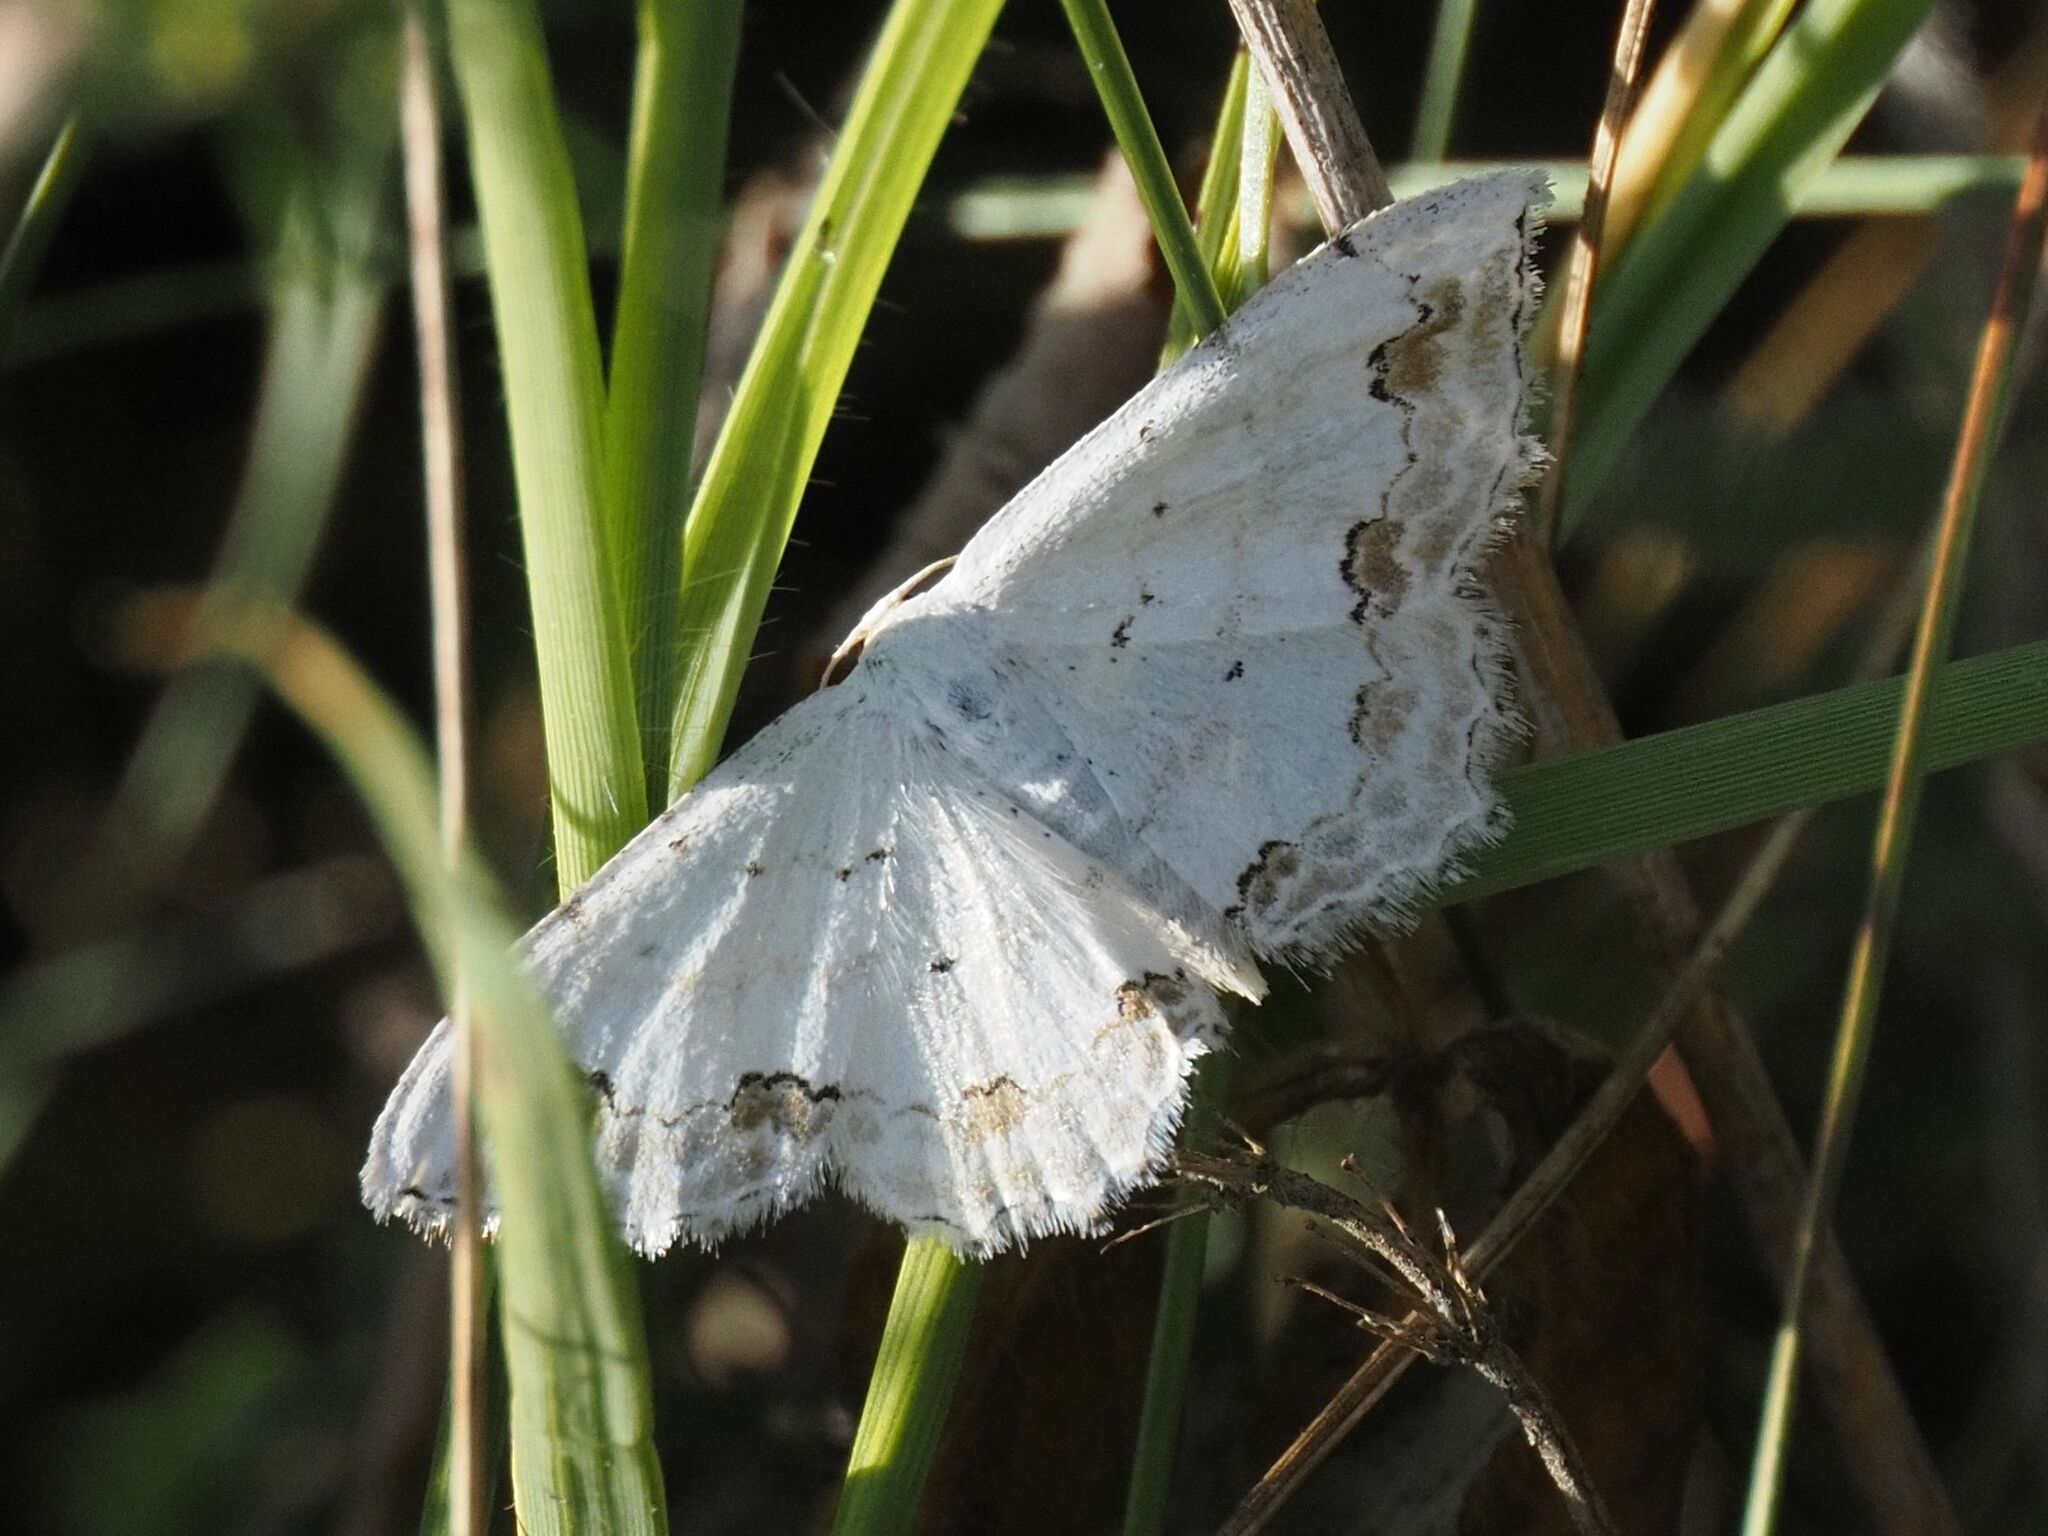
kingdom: Animalia
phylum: Arthropoda
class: Insecta
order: Lepidoptera
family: Geometridae
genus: Scopula
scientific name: Scopula ornata
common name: Lace border
